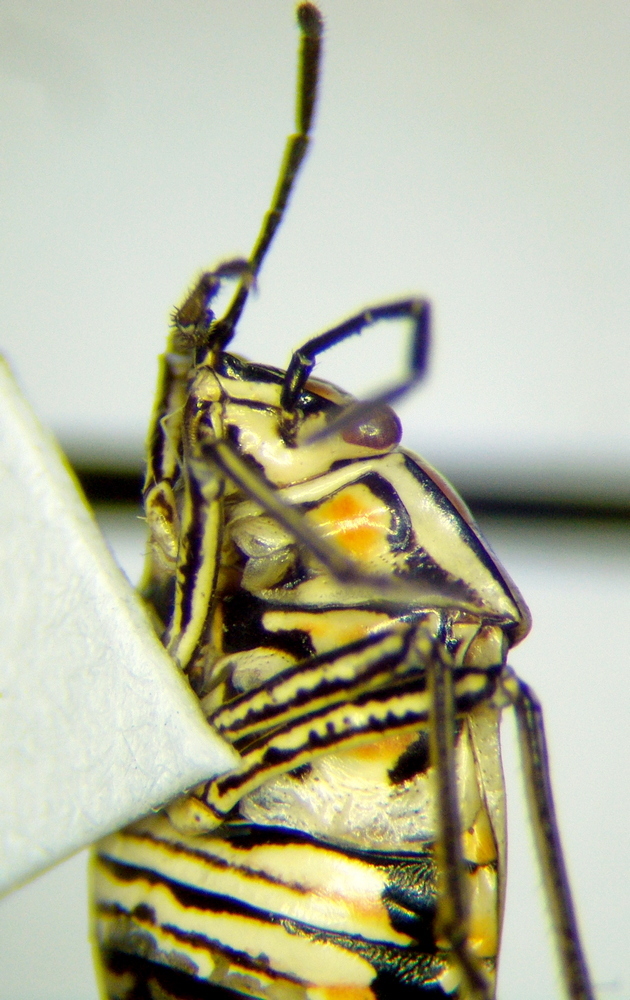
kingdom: Animalia
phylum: Arthropoda
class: Insecta
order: Hemiptera
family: Pentatomidae
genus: Bagrada
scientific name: Bagrada hilaris
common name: Bagrada bug
